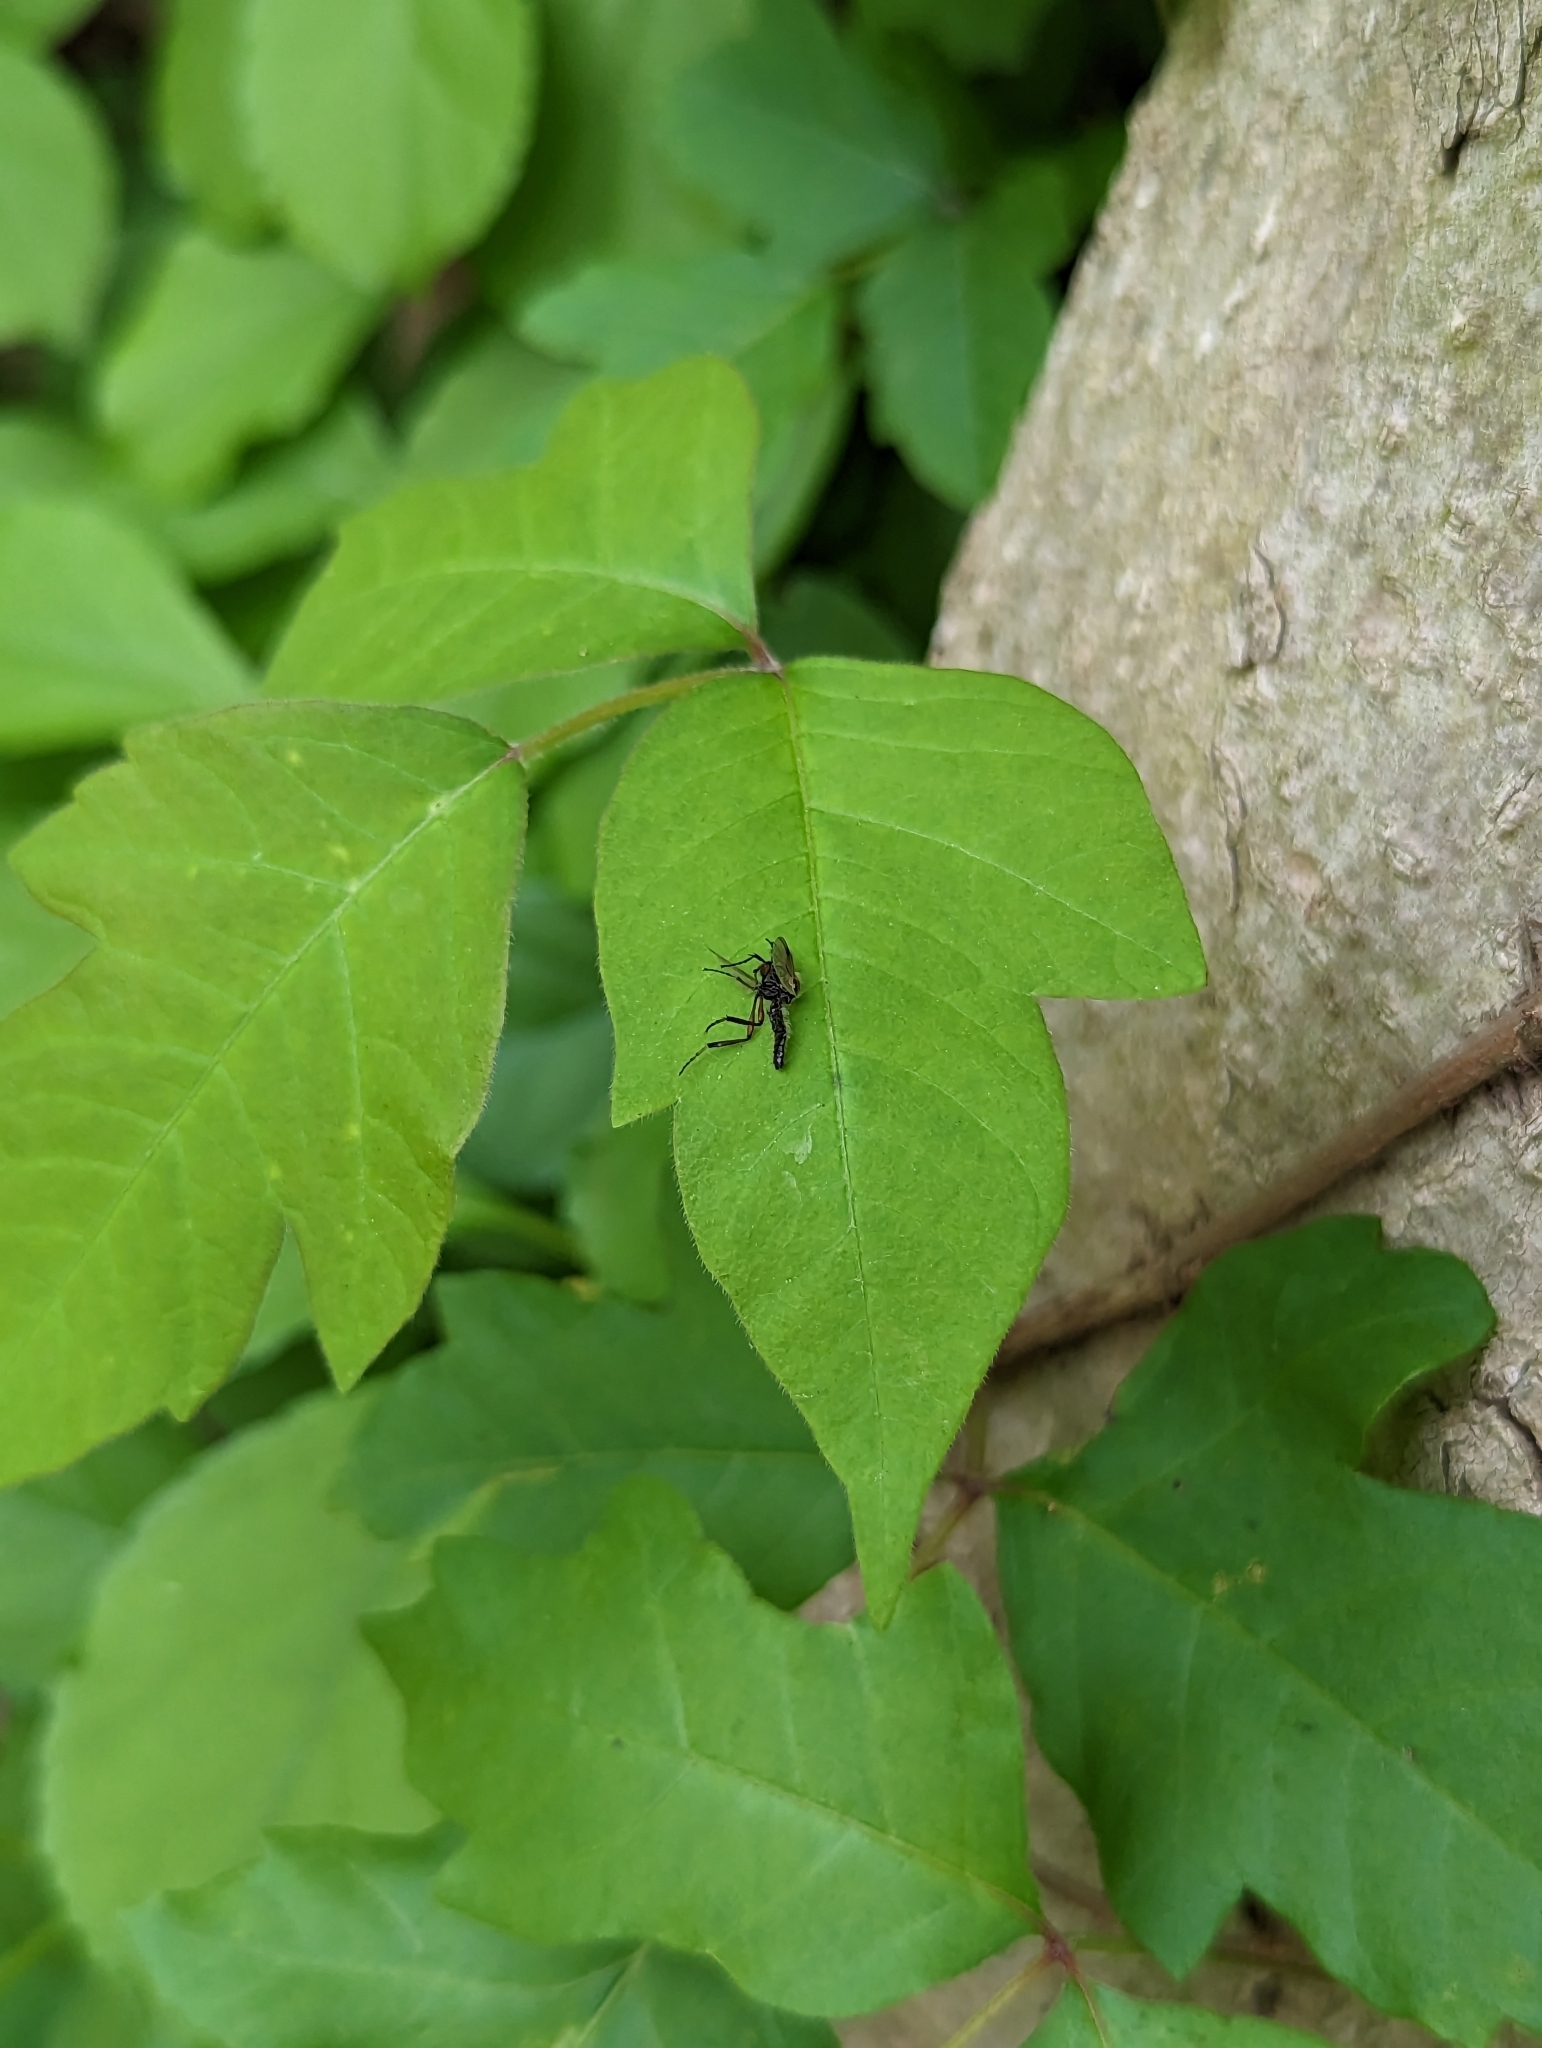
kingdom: Animalia
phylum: Arthropoda
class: Insecta
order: Diptera
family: Bibionidae
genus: Bibio
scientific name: Bibio articulatus
